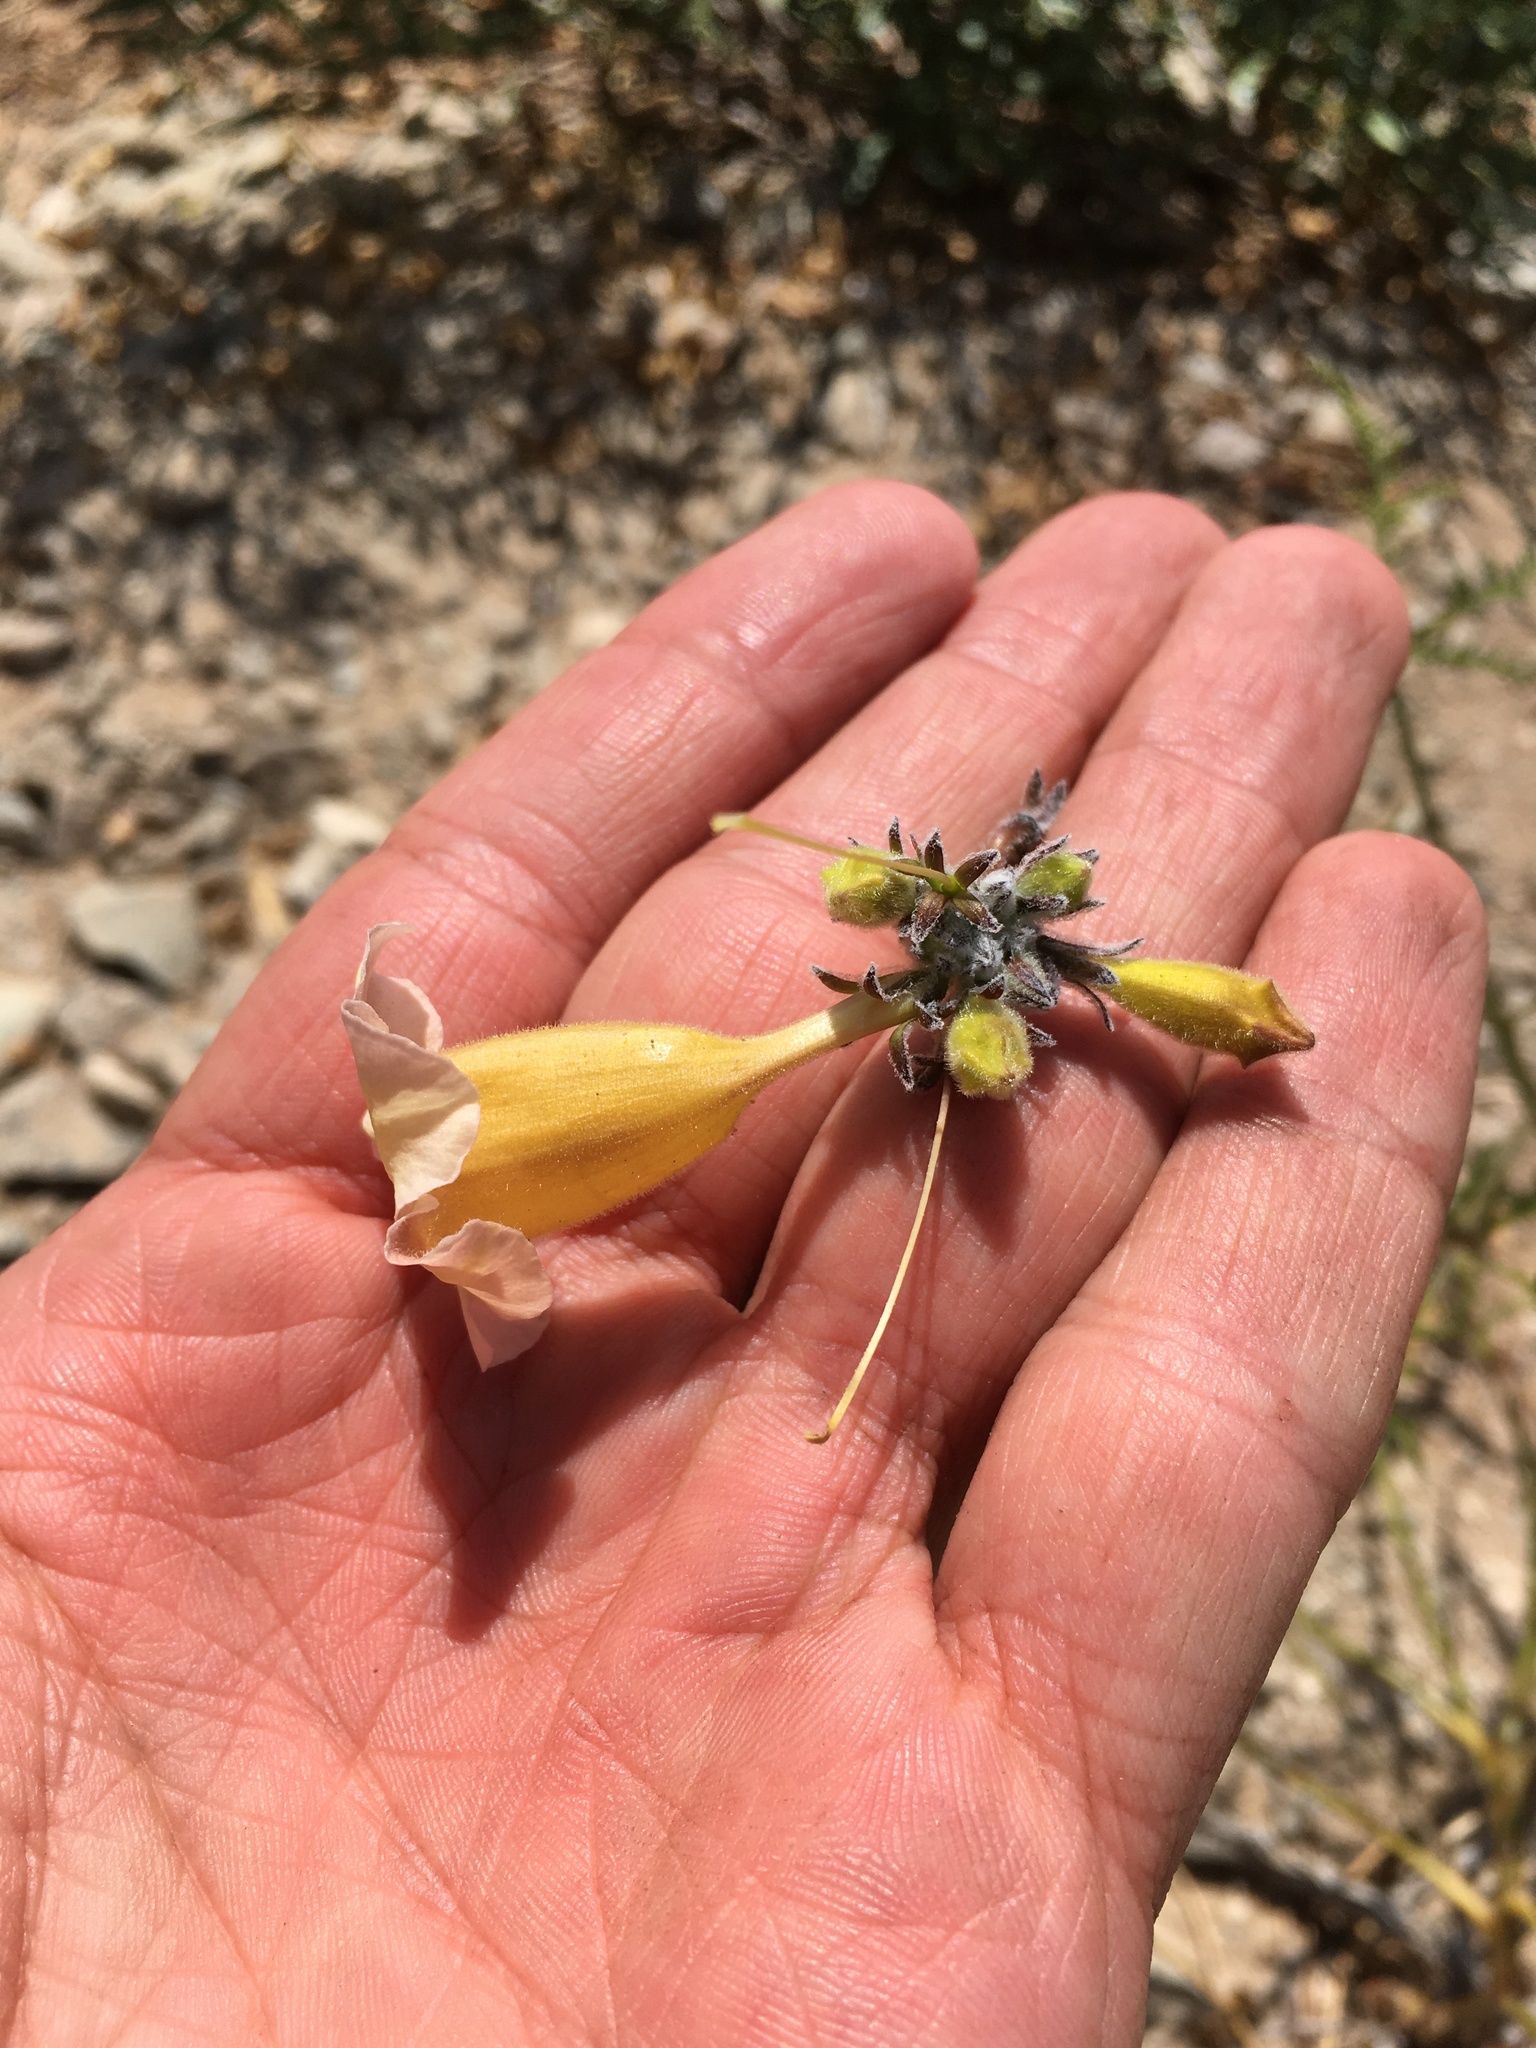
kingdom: Plantae
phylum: Tracheophyta
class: Magnoliopsida
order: Lamiales
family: Bignoniaceae
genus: Argylia
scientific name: Argylia radiata
